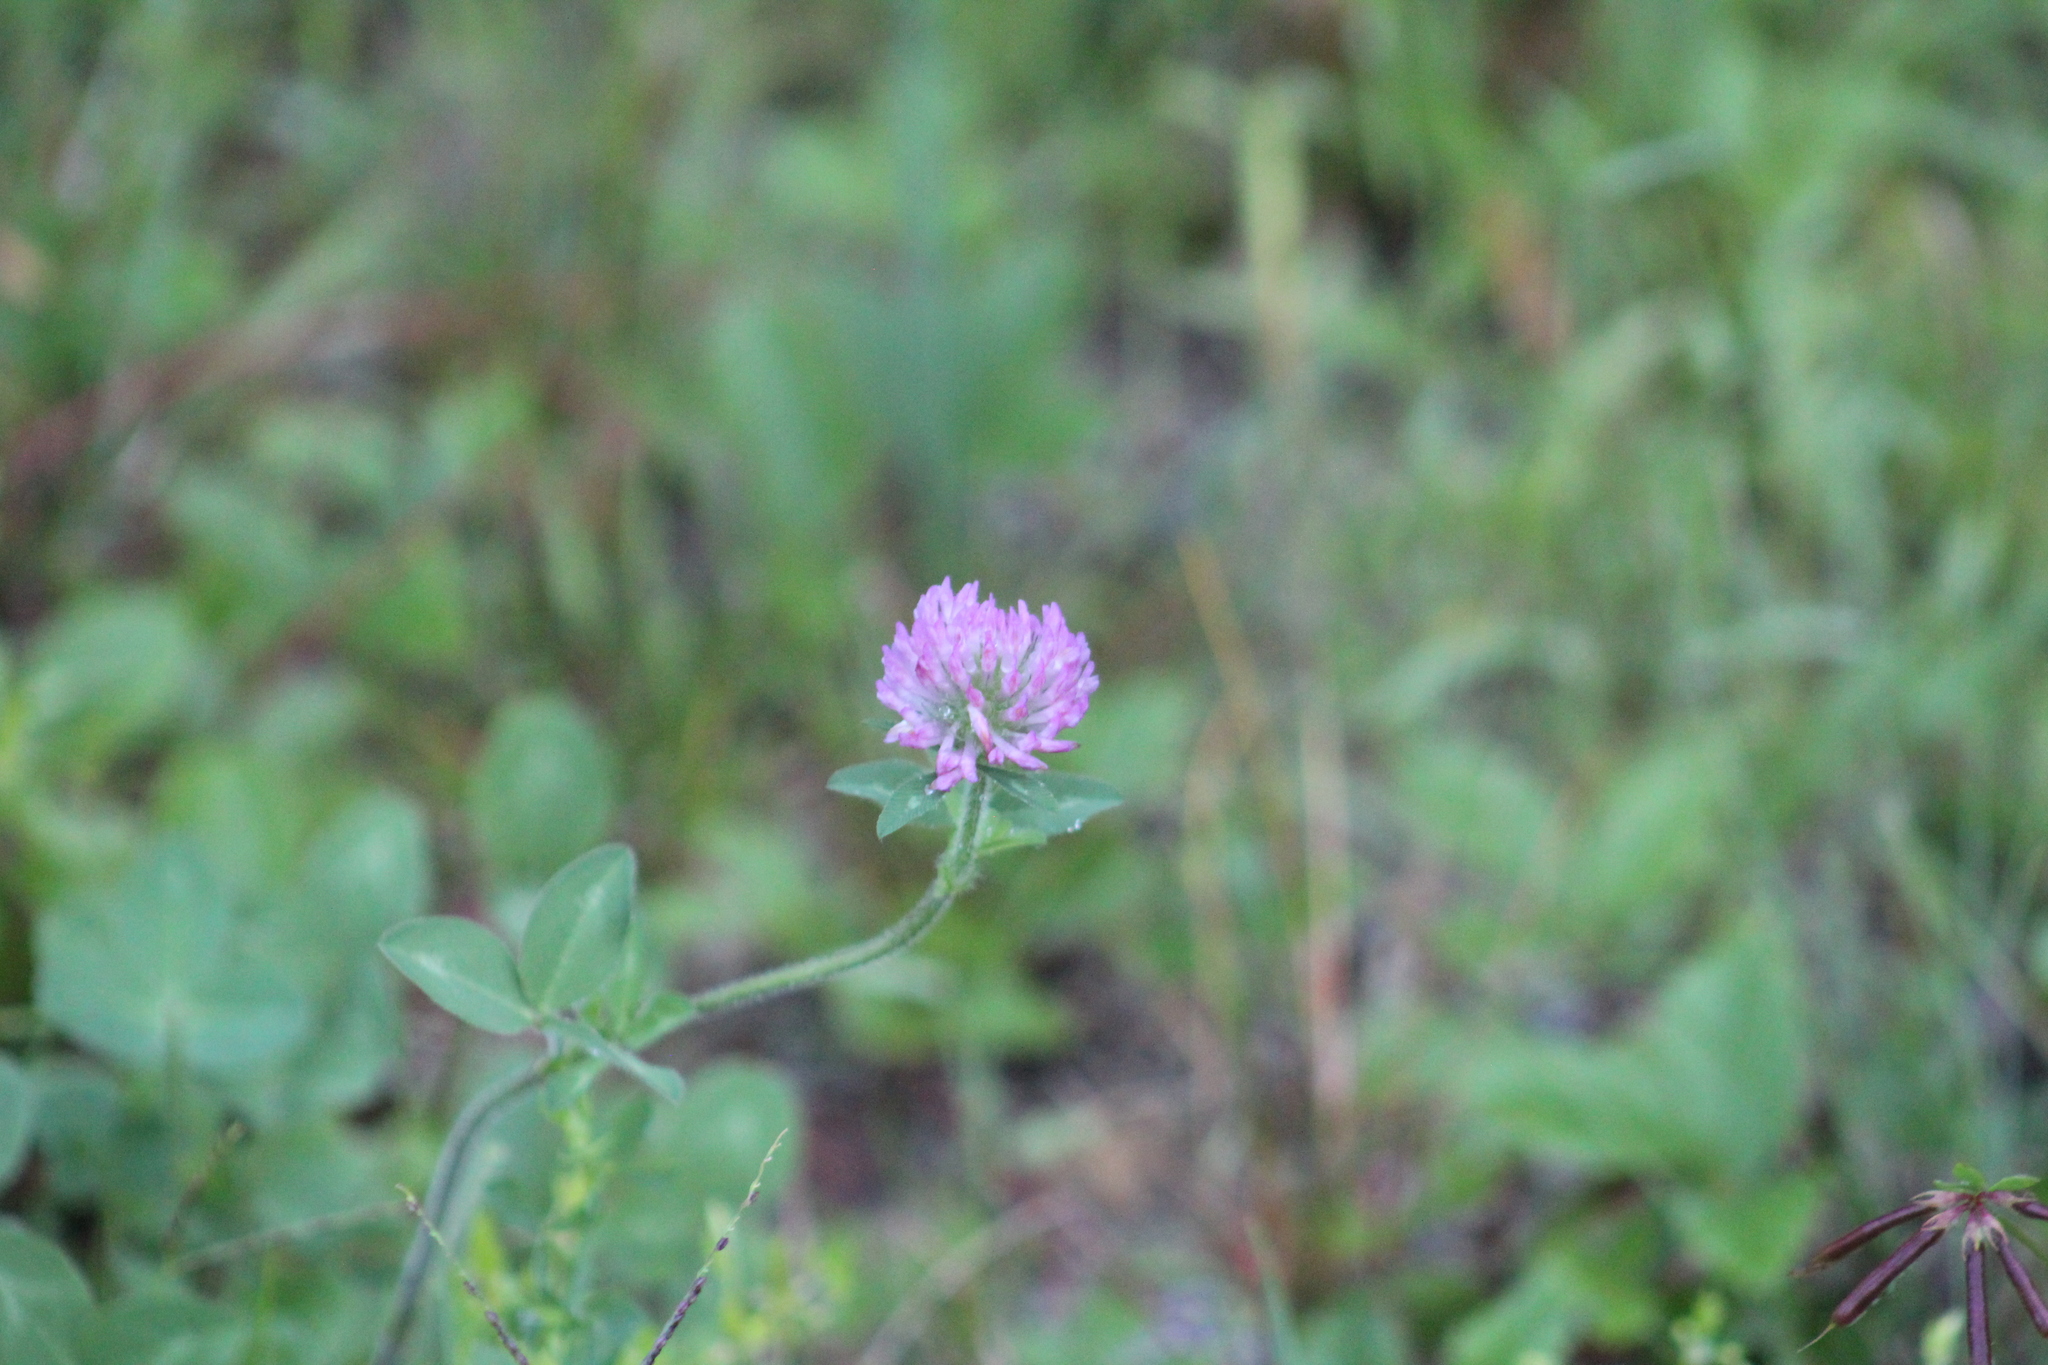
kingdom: Plantae
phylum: Tracheophyta
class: Magnoliopsida
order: Fabales
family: Fabaceae
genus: Trifolium
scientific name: Trifolium pratense
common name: Red clover
